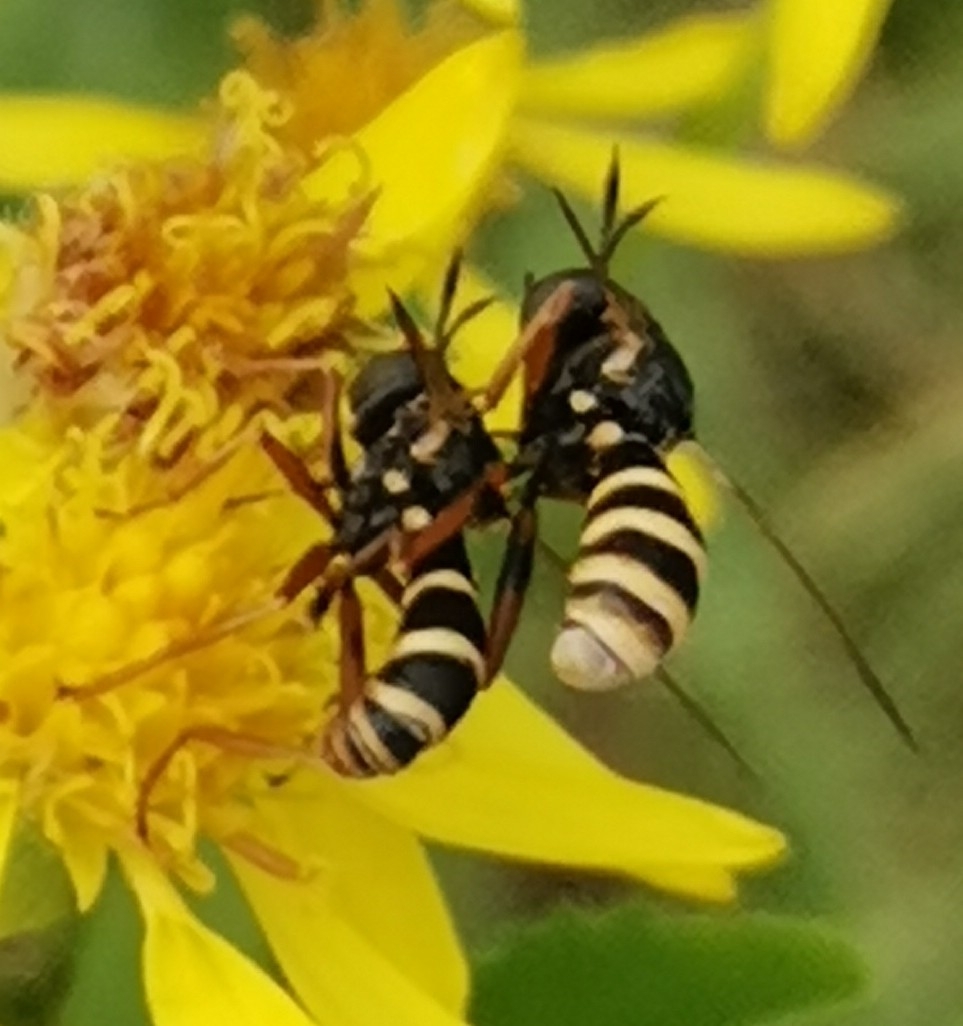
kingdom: Animalia
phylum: Arthropoda
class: Insecta
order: Diptera
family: Conopidae
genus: Conops
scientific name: Conops quadrifasciatus
